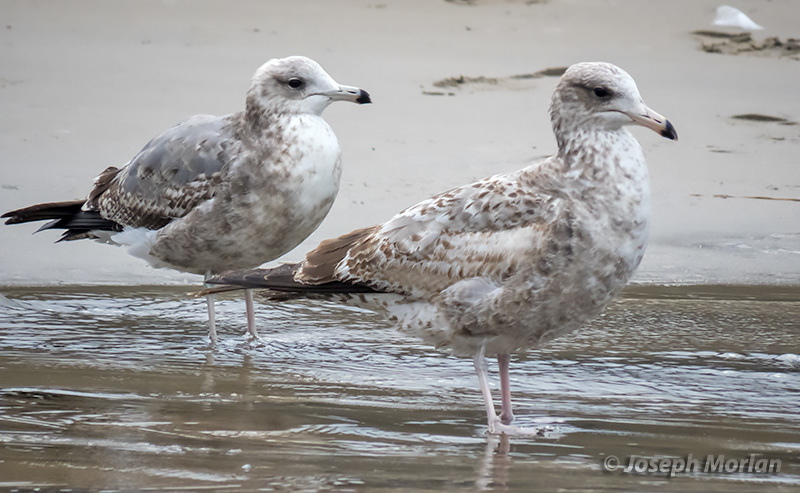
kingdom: Animalia
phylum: Chordata
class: Aves
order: Charadriiformes
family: Laridae
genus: Larus
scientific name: Larus californicus
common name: California gull
